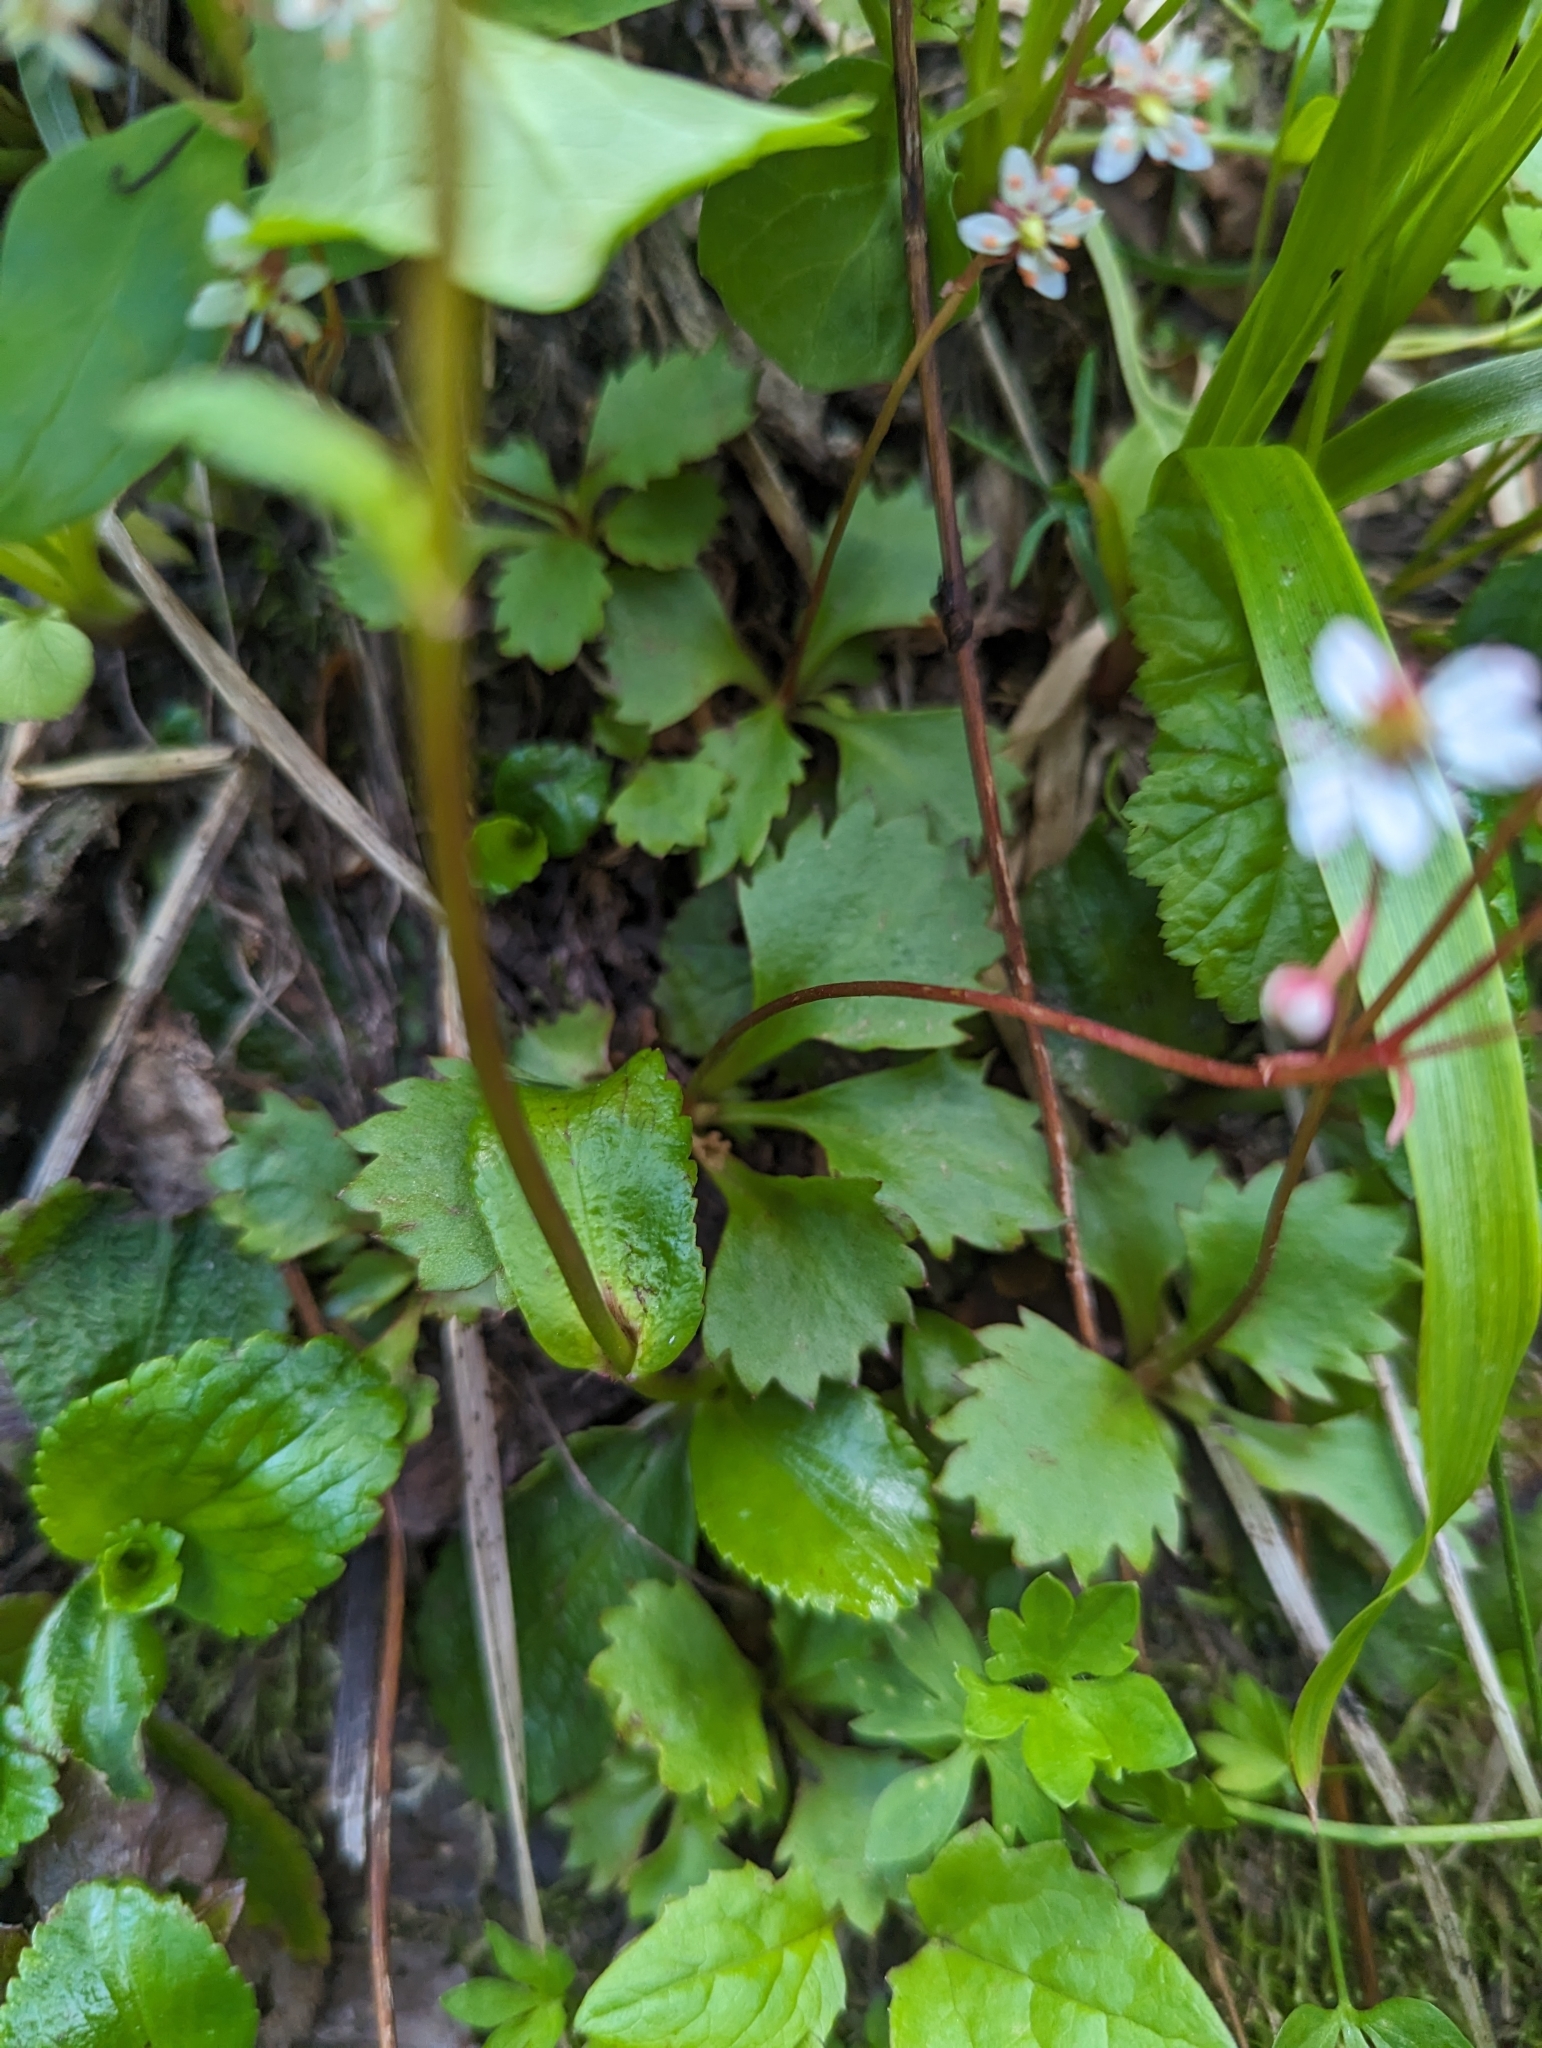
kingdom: Plantae
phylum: Tracheophyta
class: Magnoliopsida
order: Saxifragales
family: Saxifragaceae
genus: Micranthes
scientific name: Micranthes lyallii
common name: Lyall's saxifrage
